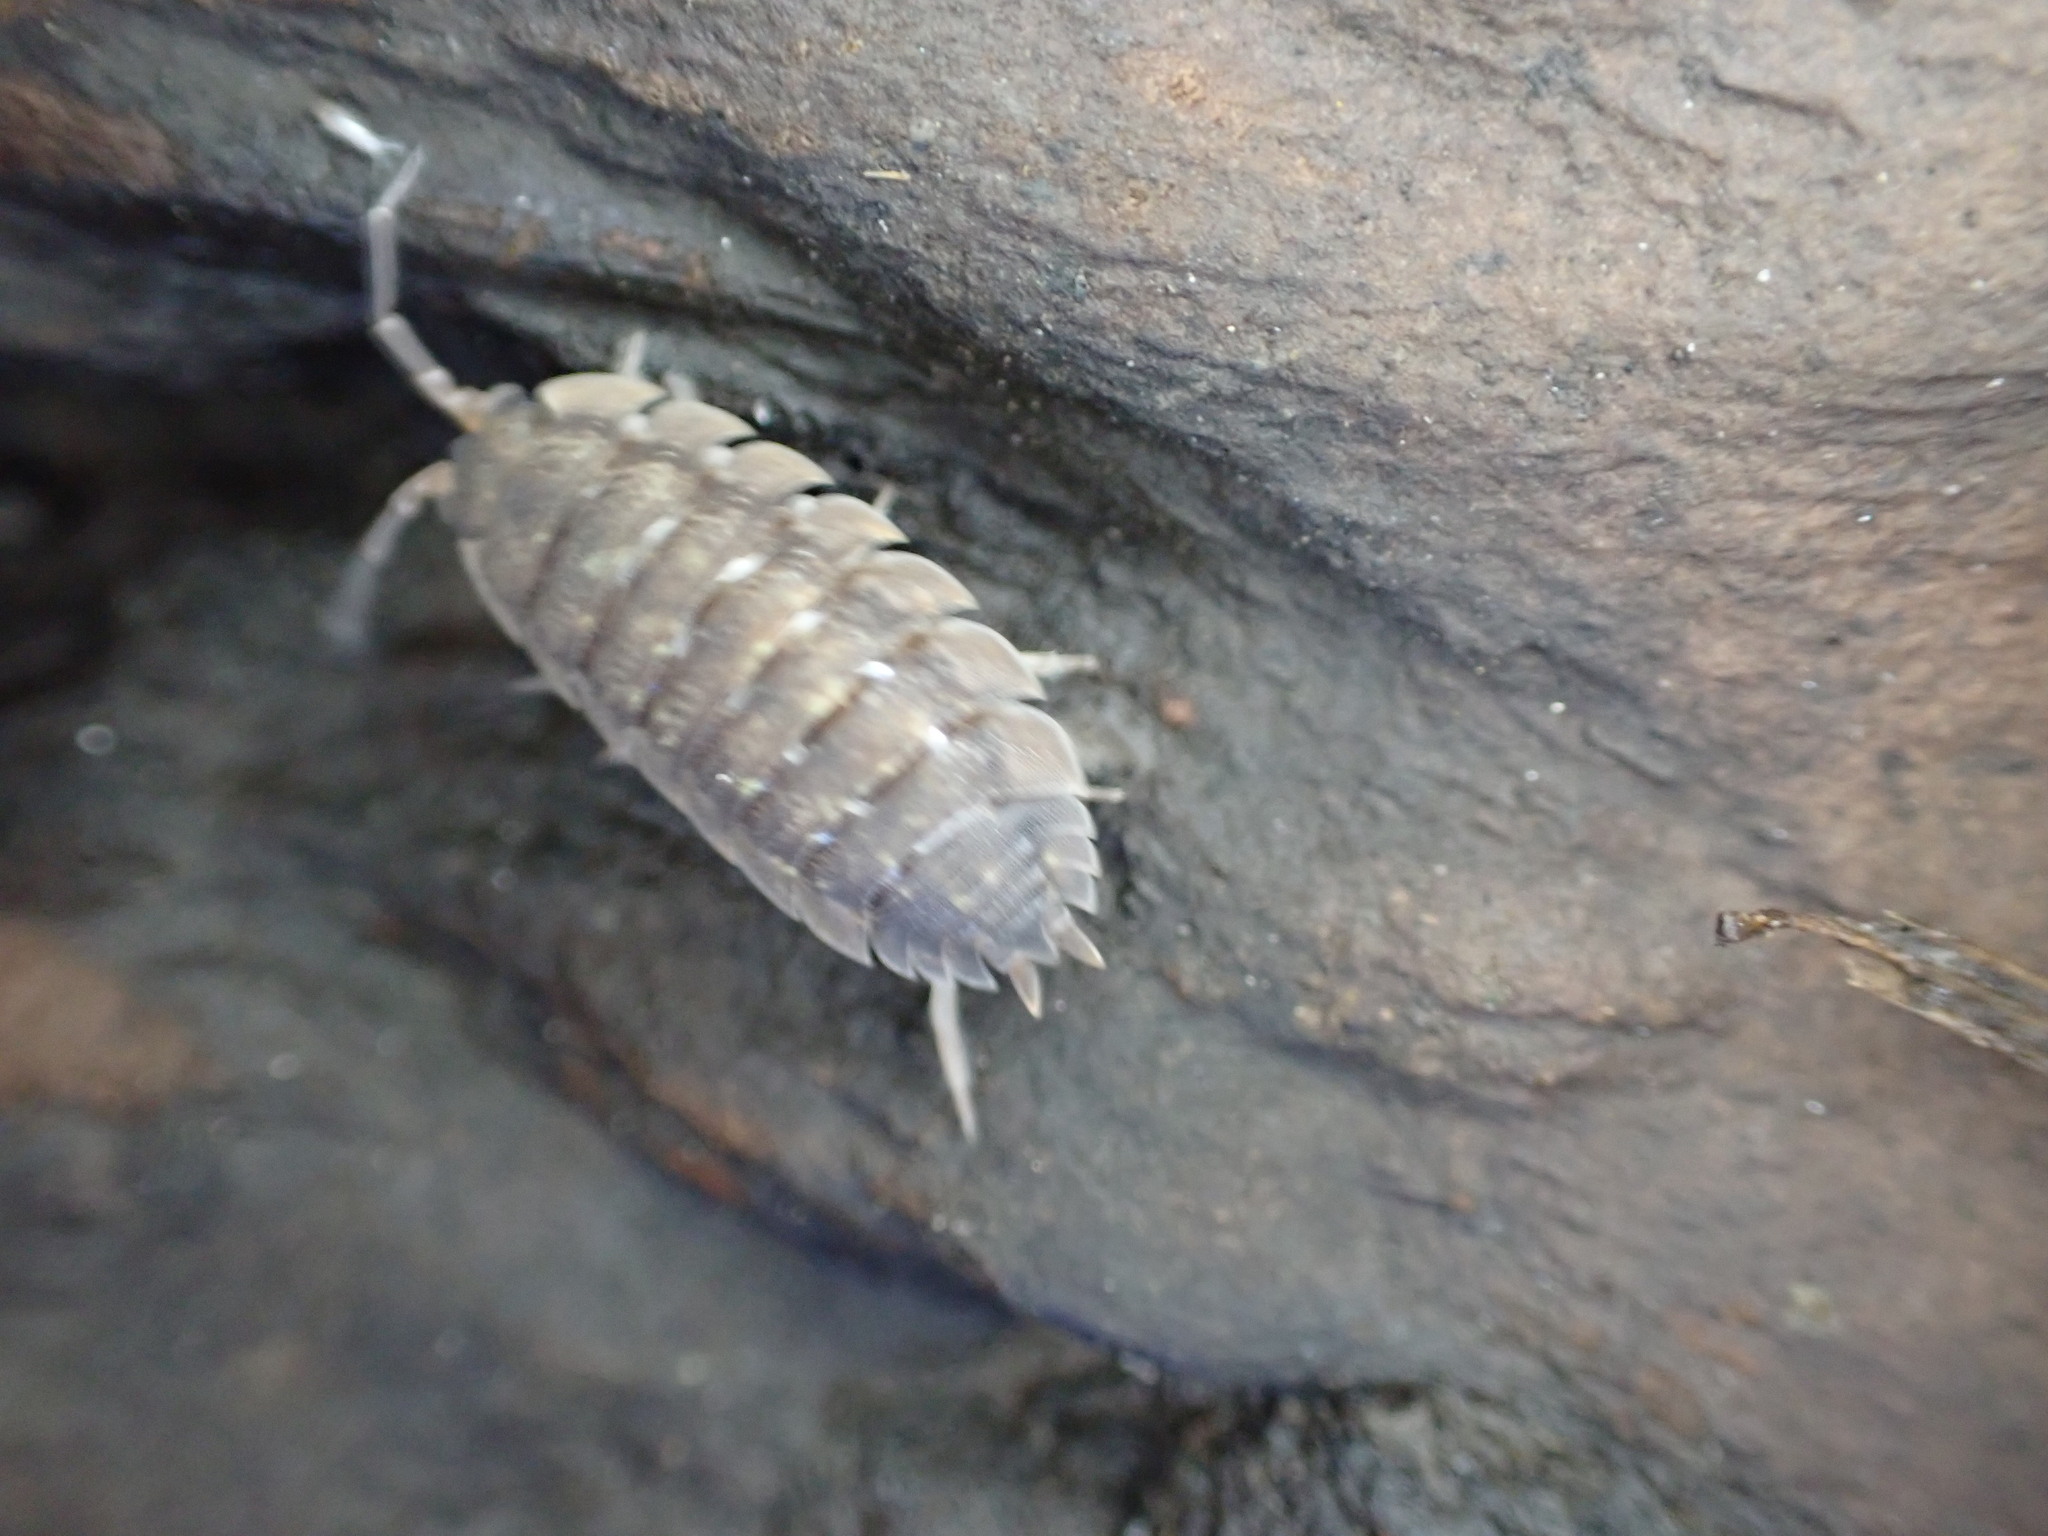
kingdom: Animalia
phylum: Arthropoda
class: Malacostraca
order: Isopoda
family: Porcellionidae
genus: Porcellio
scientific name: Porcellio scaber
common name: Common rough woodlouse
